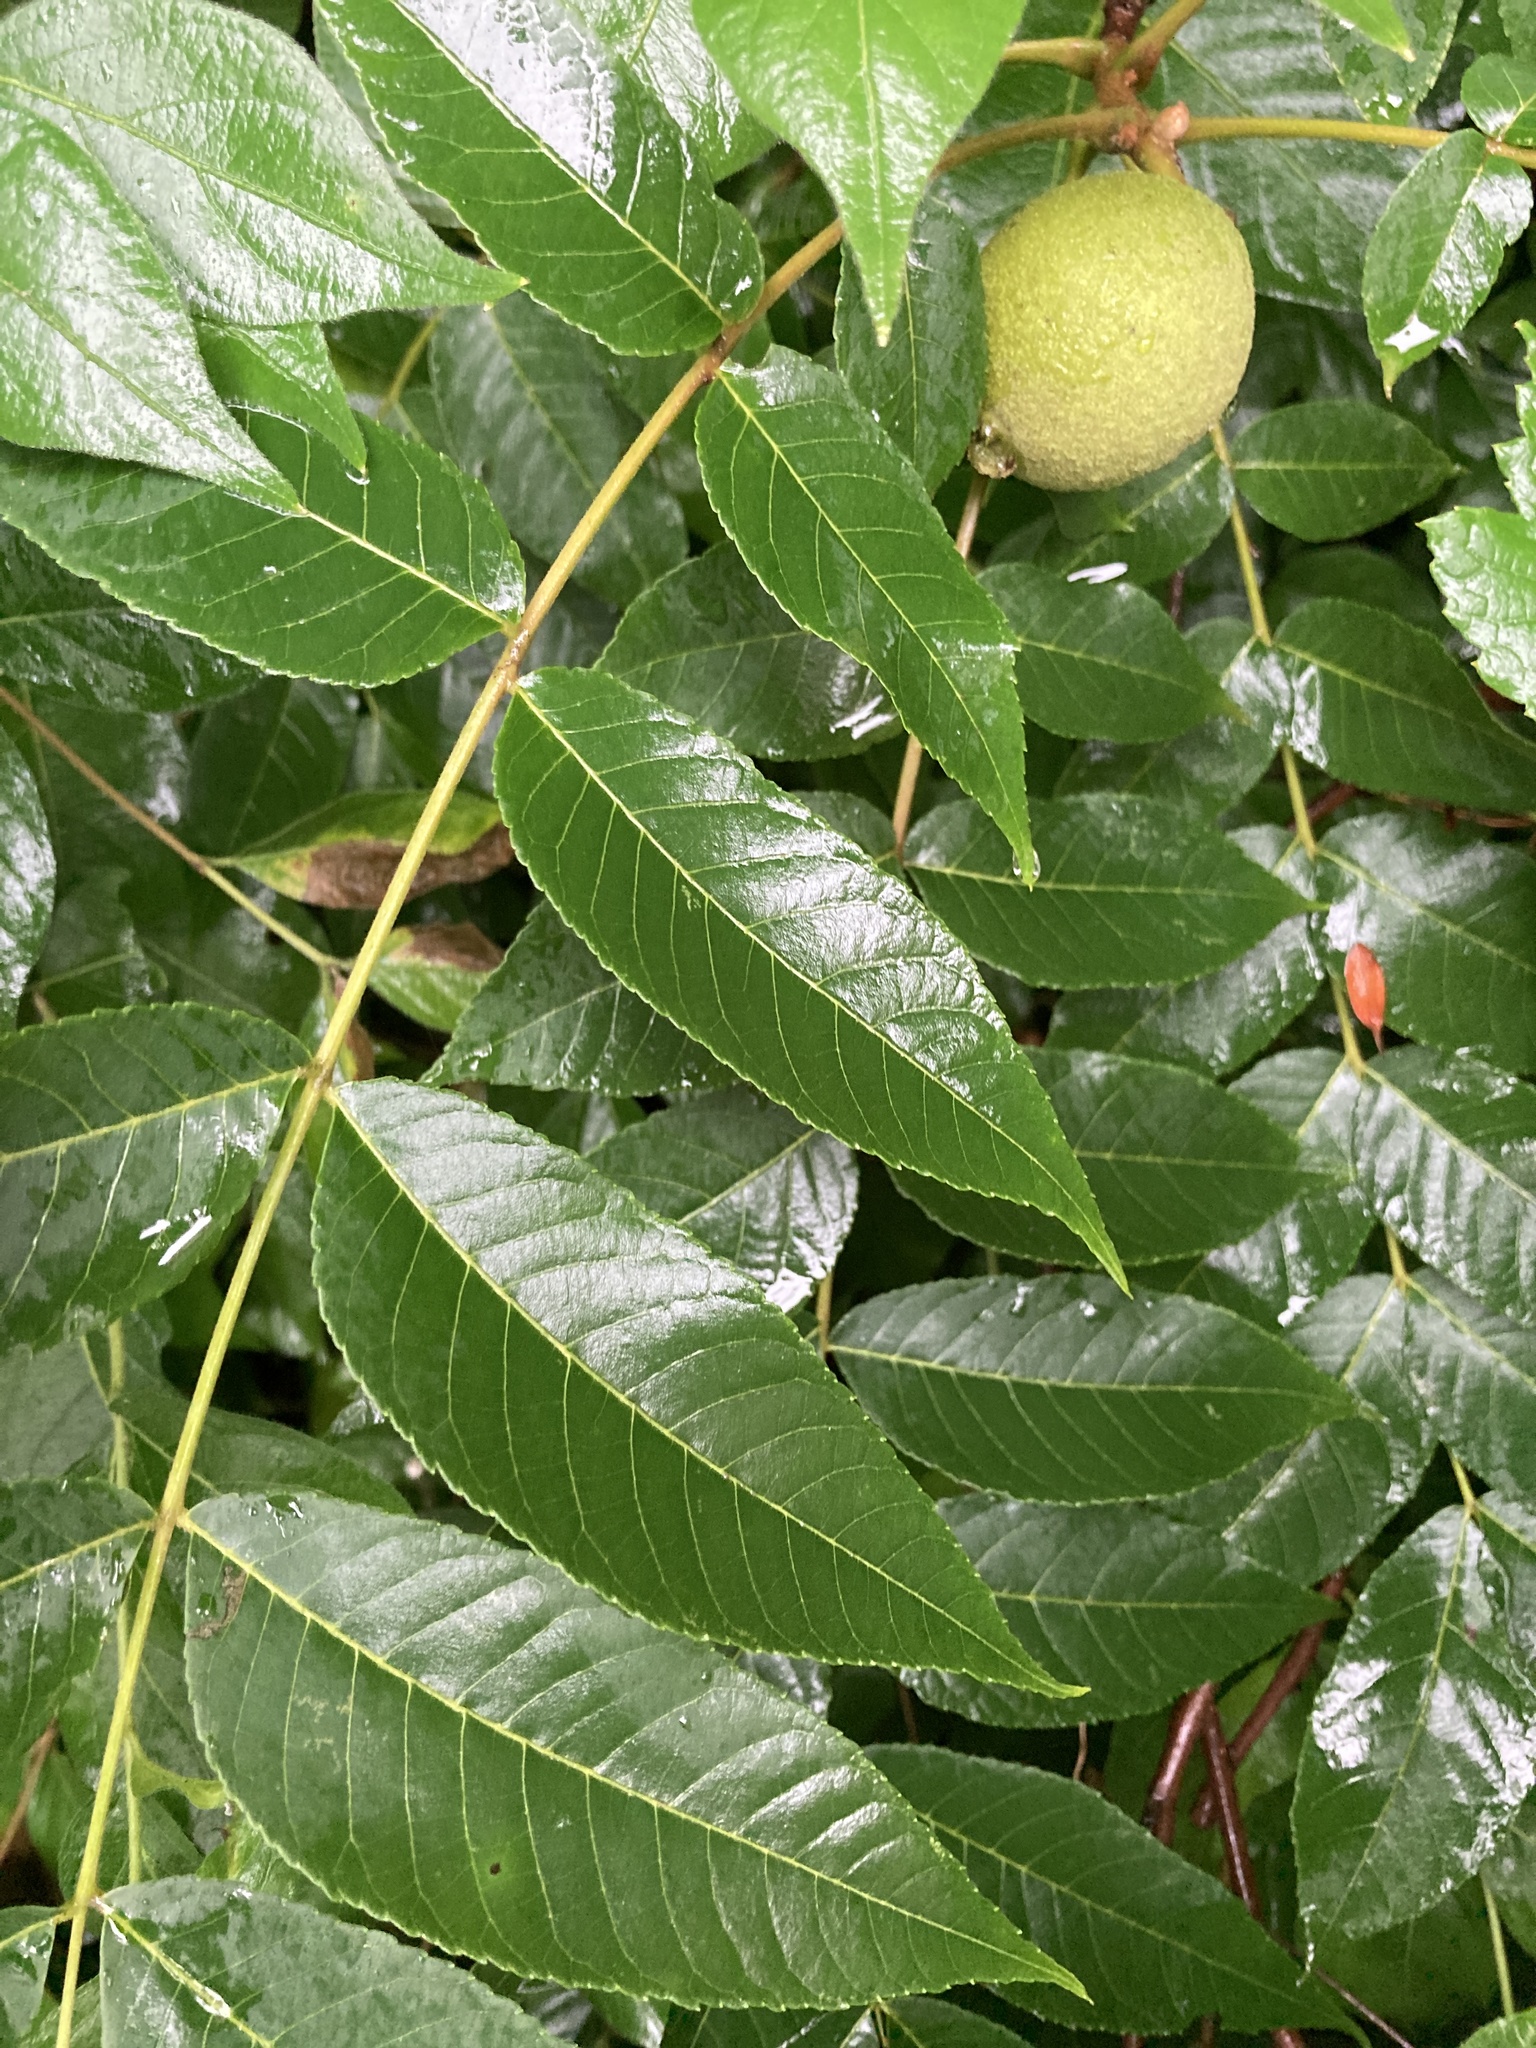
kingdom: Plantae
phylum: Tracheophyta
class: Magnoliopsida
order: Fagales
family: Juglandaceae
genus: Juglans
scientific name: Juglans nigra
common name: Black walnut
